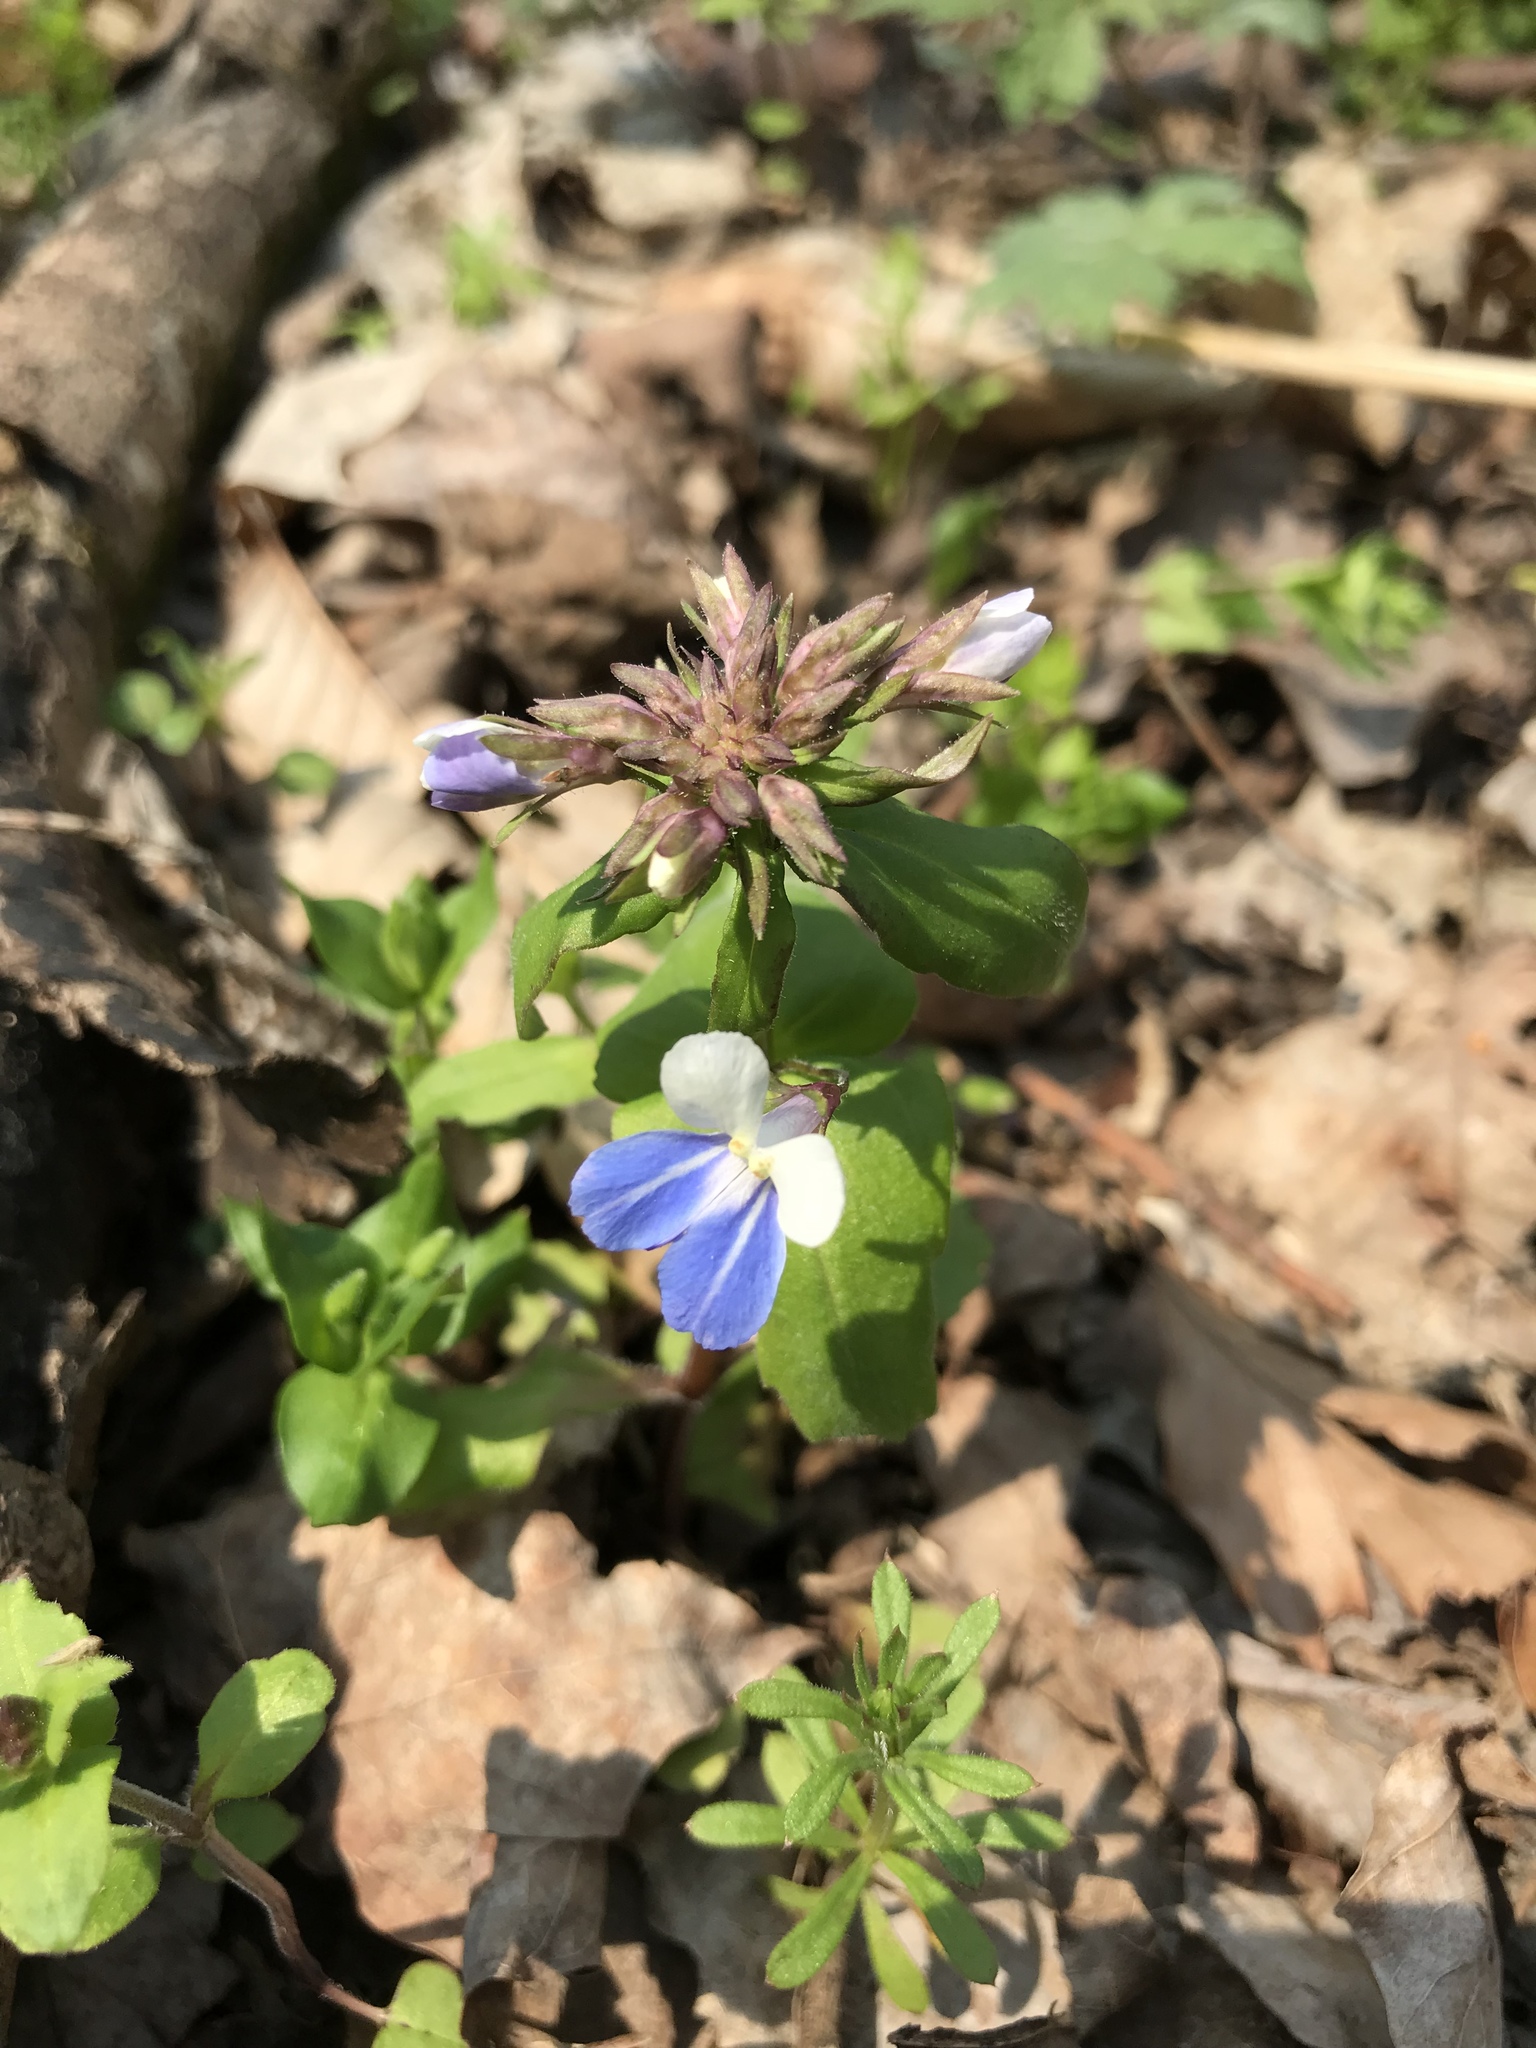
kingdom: Plantae
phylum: Tracheophyta
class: Magnoliopsida
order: Lamiales
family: Plantaginaceae
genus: Collinsia
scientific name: Collinsia verna
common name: Broad-leaved collinsia
